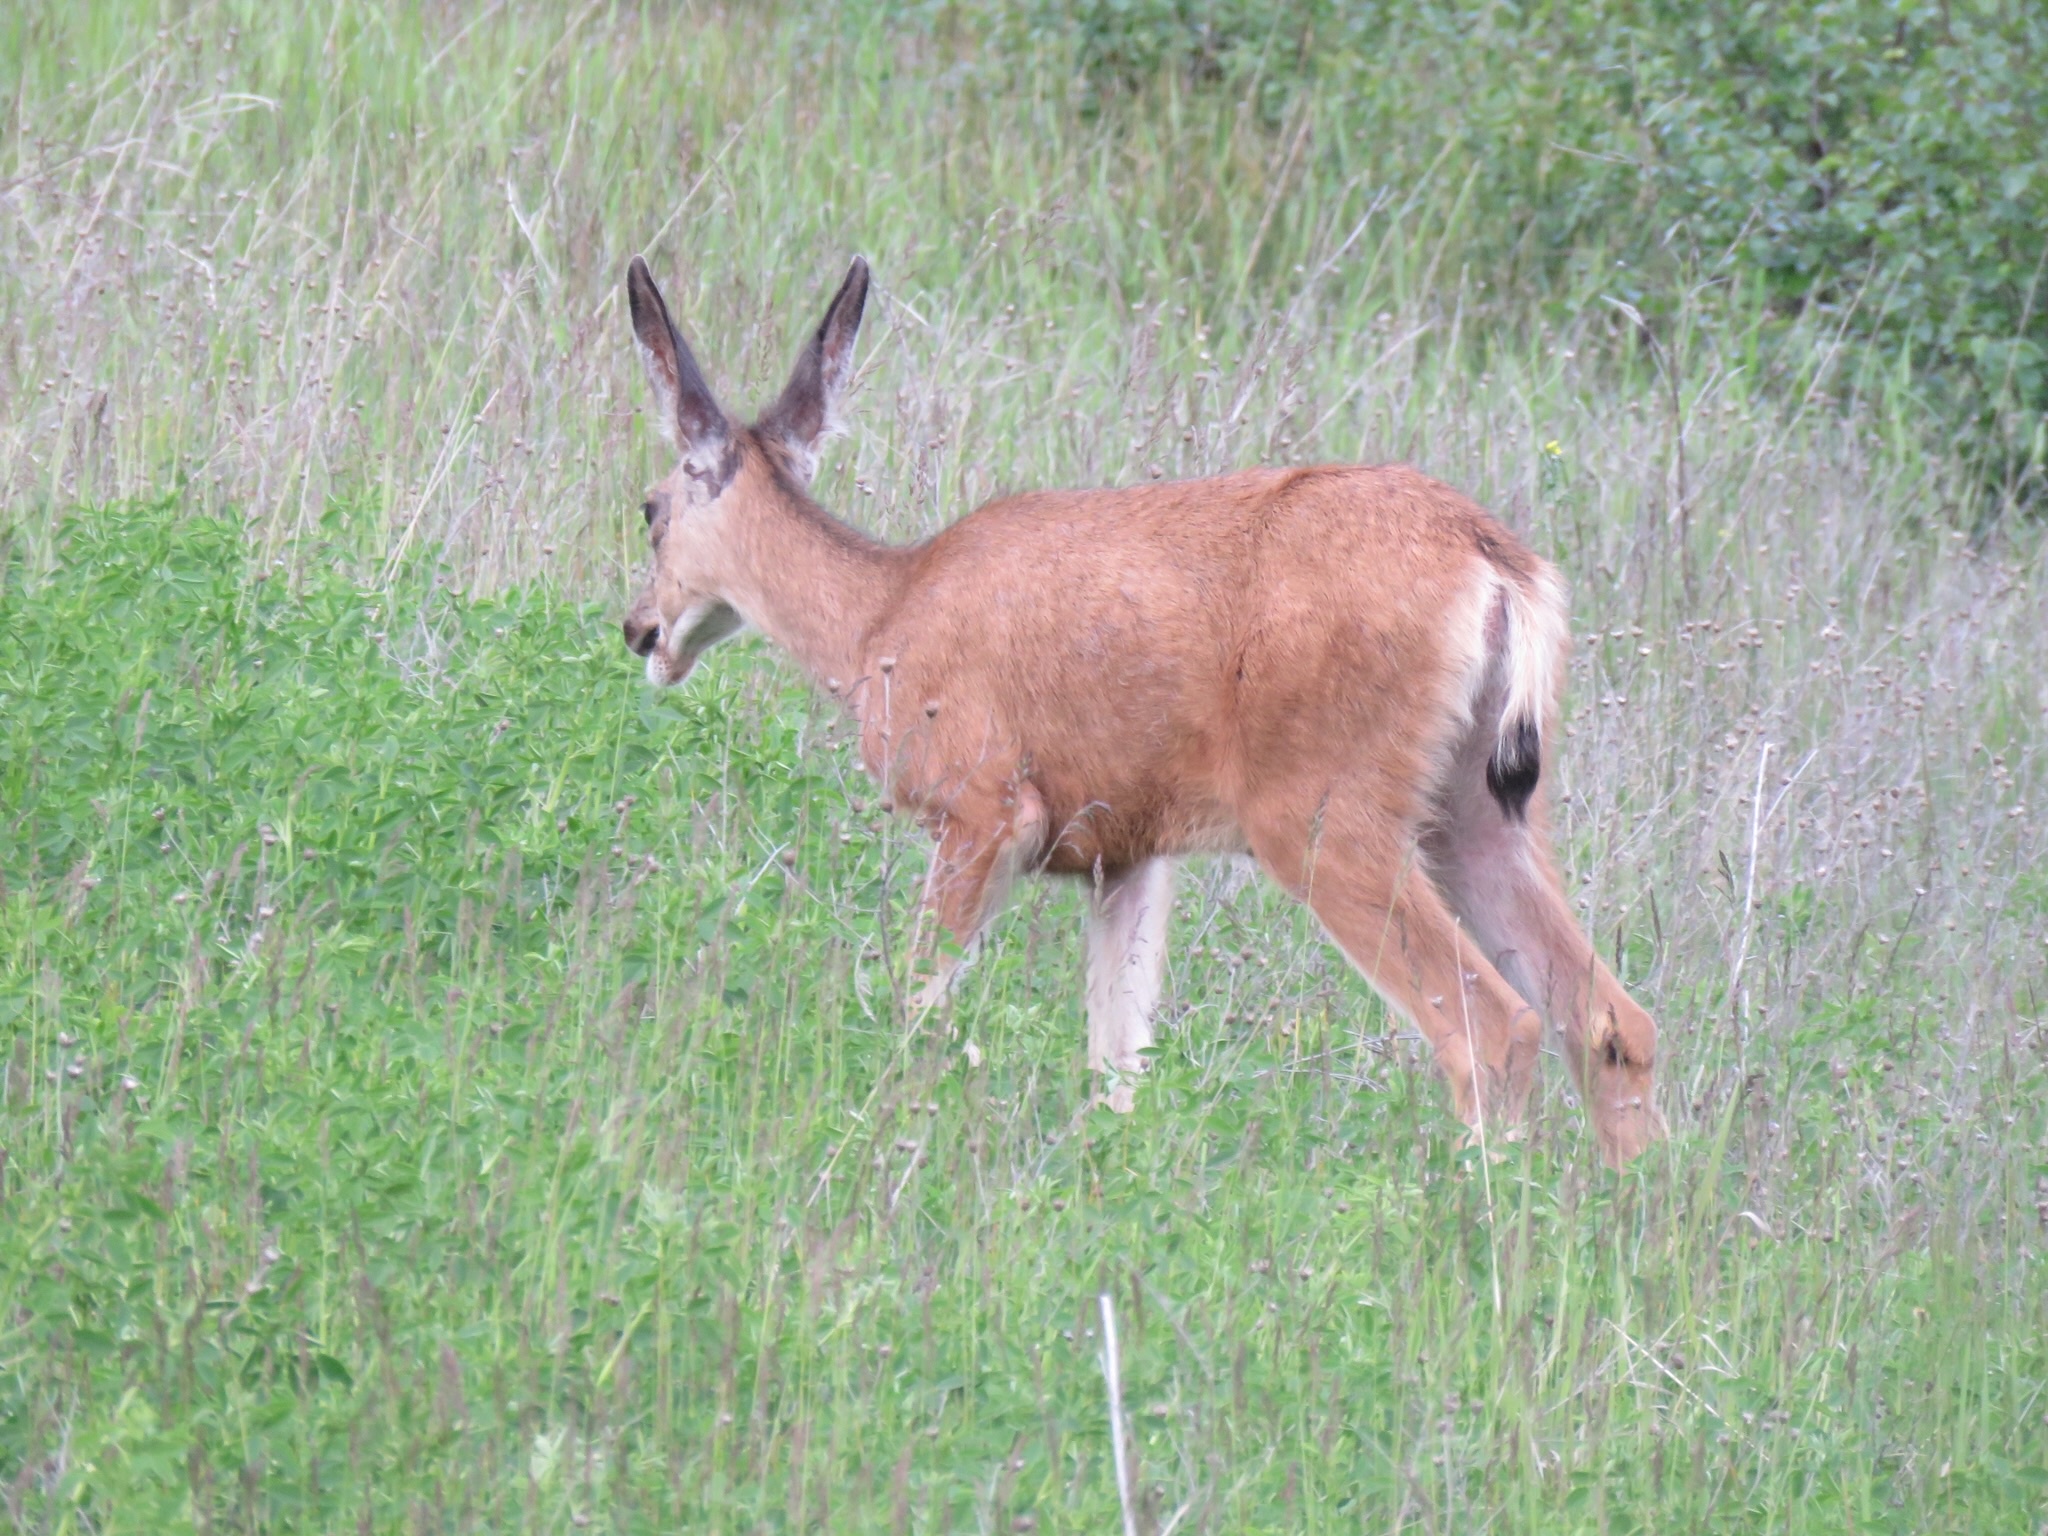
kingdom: Animalia
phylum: Chordata
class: Mammalia
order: Artiodactyla
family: Cervidae
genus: Odocoileus
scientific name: Odocoileus hemionus
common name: Mule deer
